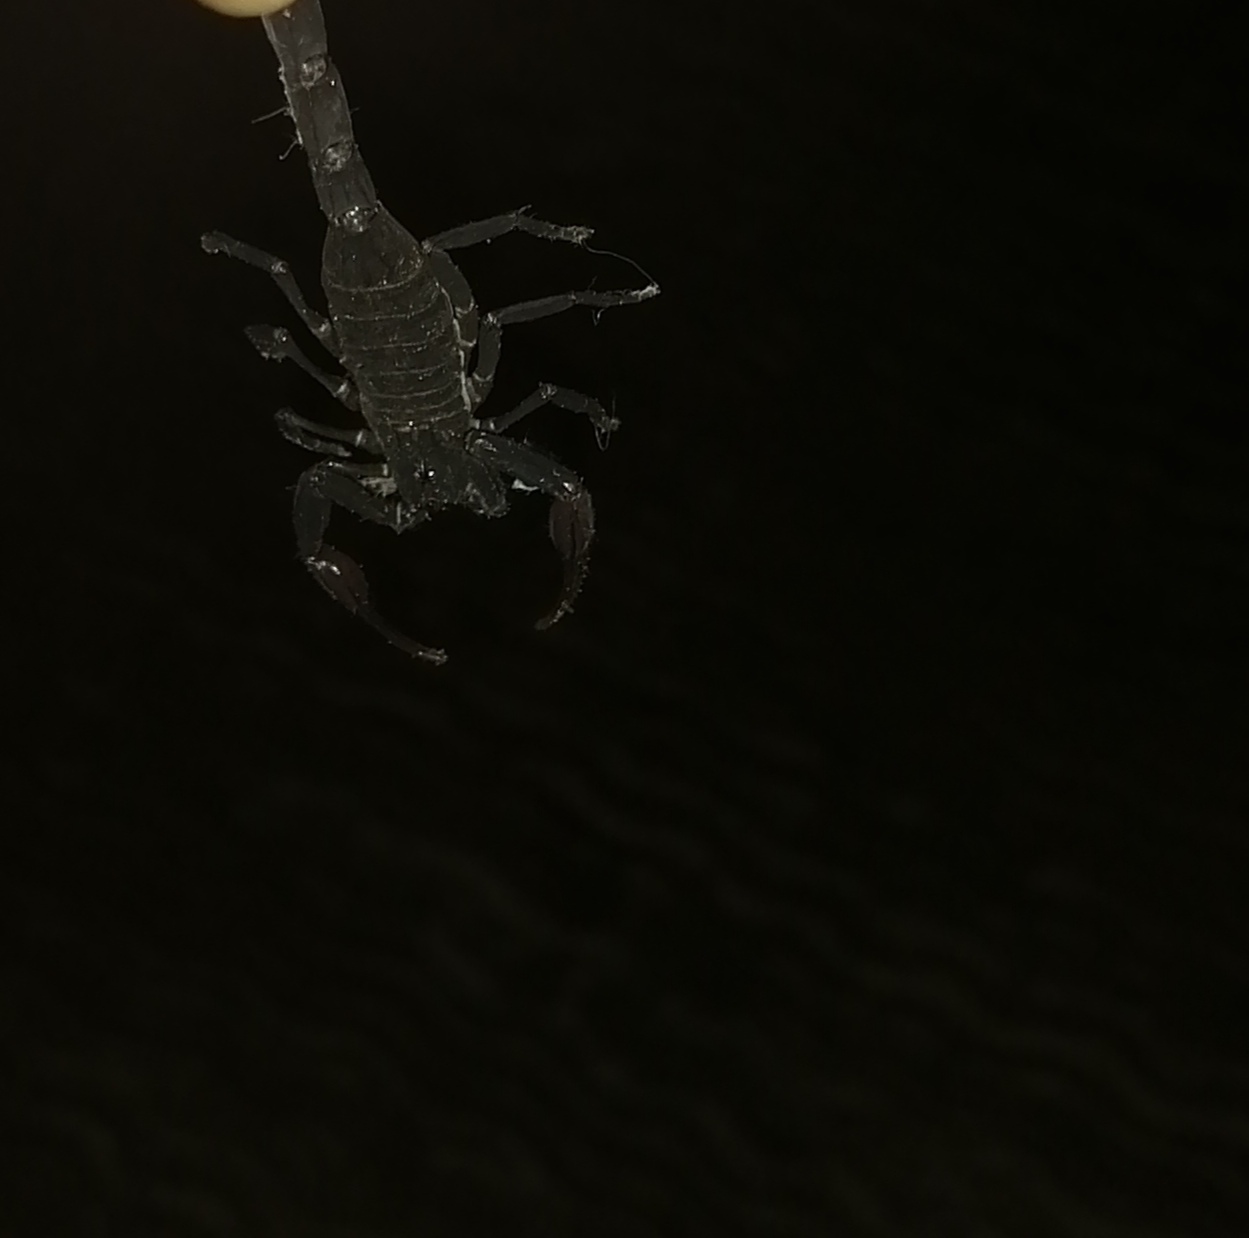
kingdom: Animalia
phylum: Arthropoda
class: Arachnida
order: Scorpiones
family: Buthidae
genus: Centruroides
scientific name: Centruroides gracilis
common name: Scorpions
